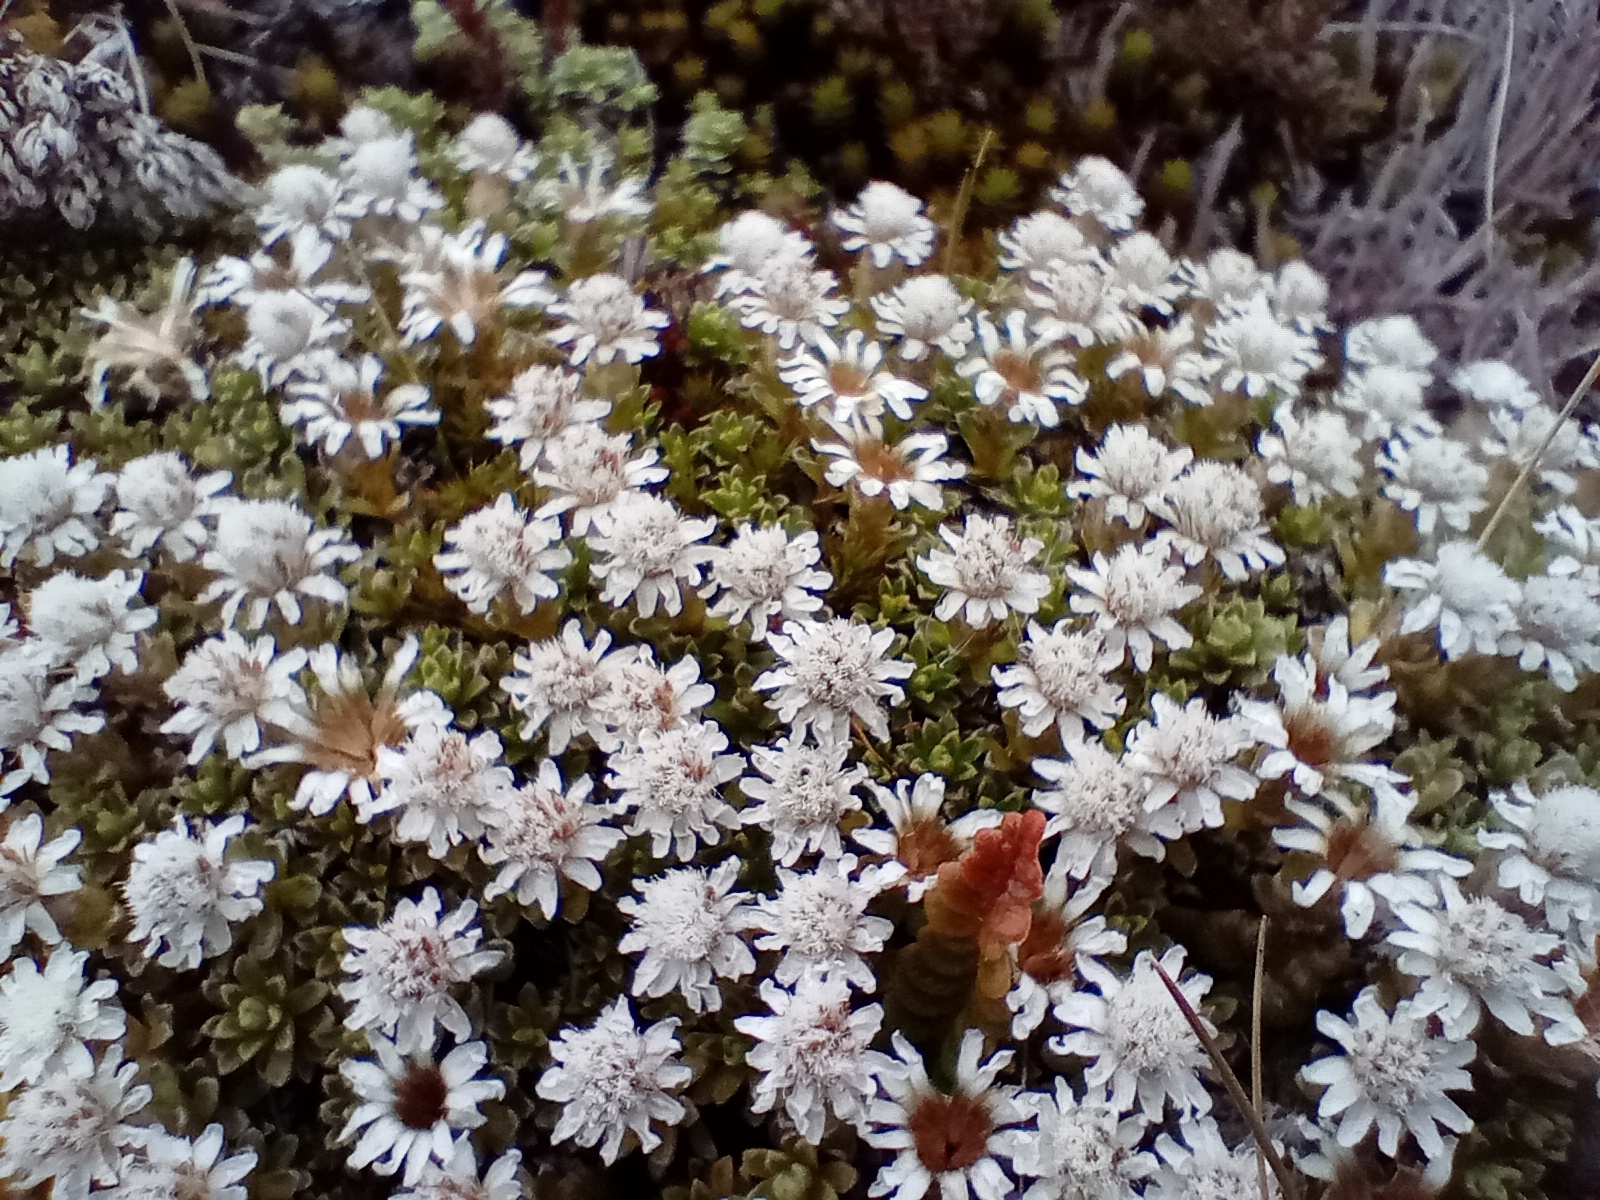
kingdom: Plantae
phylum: Tracheophyta
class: Magnoliopsida
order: Asterales
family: Asteraceae
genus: Raoulia
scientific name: Raoulia subsericea
